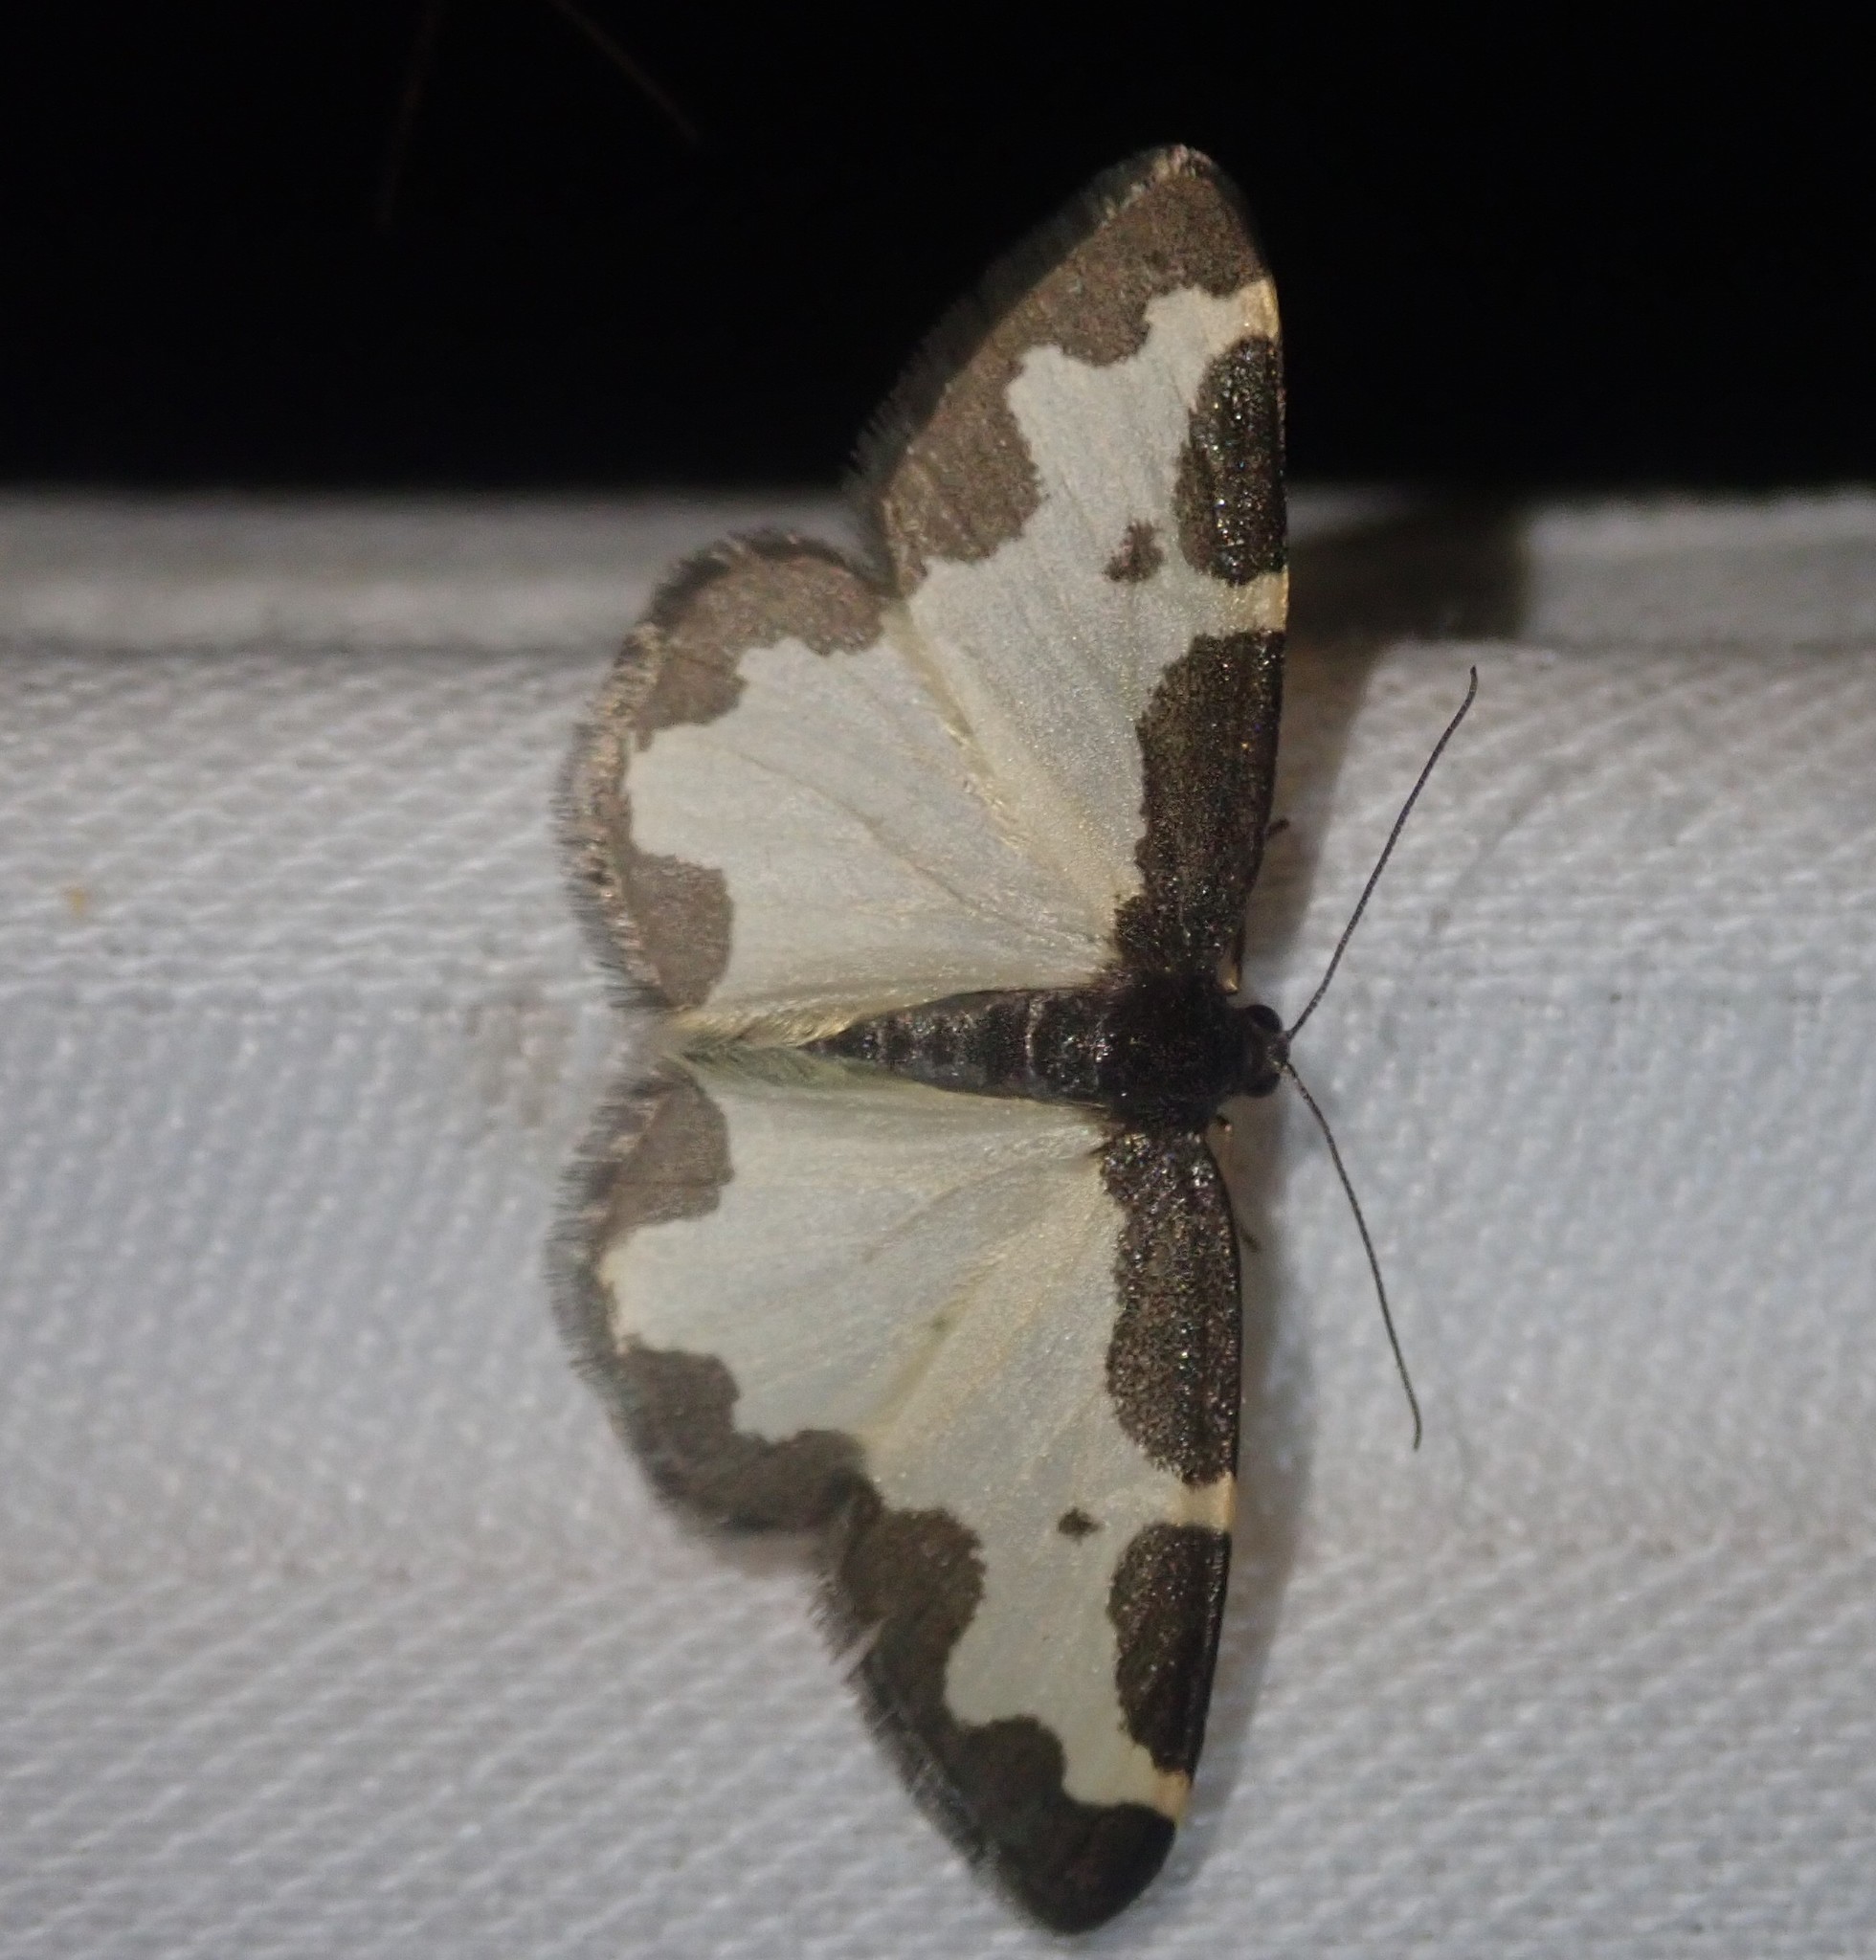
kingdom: Animalia
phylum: Arthropoda
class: Insecta
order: Lepidoptera
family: Geometridae
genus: Lomaspilis
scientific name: Lomaspilis marginata
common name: Clouded border
